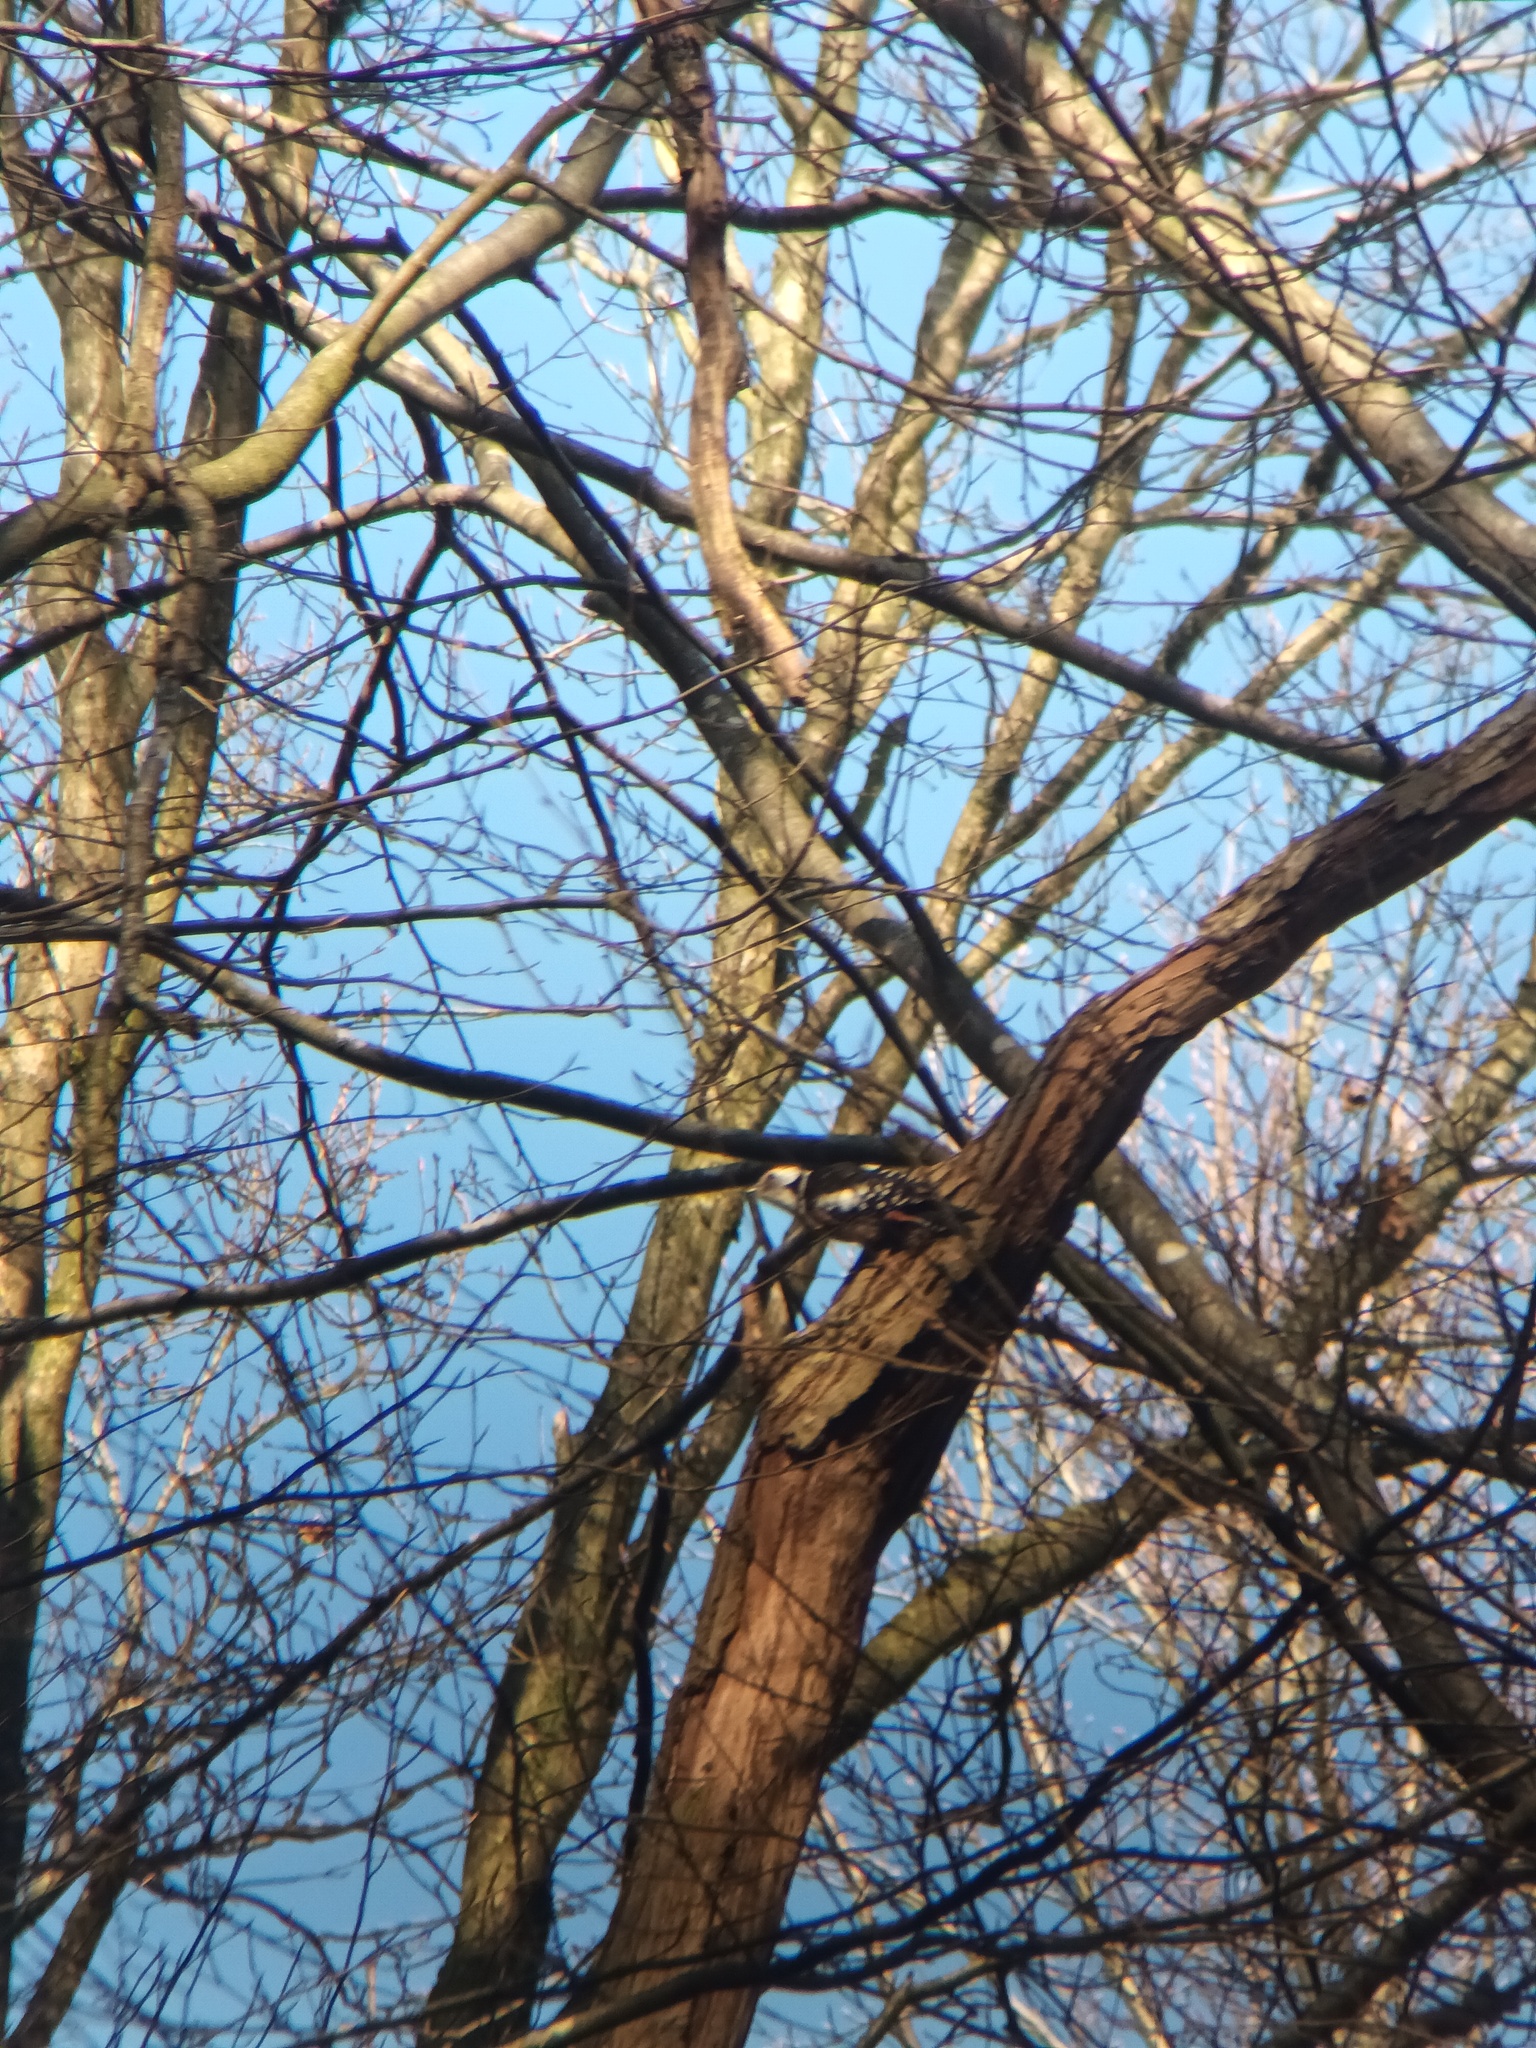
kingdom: Animalia
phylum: Chordata
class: Aves
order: Piciformes
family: Picidae
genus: Dendrocoptes
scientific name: Dendrocoptes medius
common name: Middle spotted woodpecker
